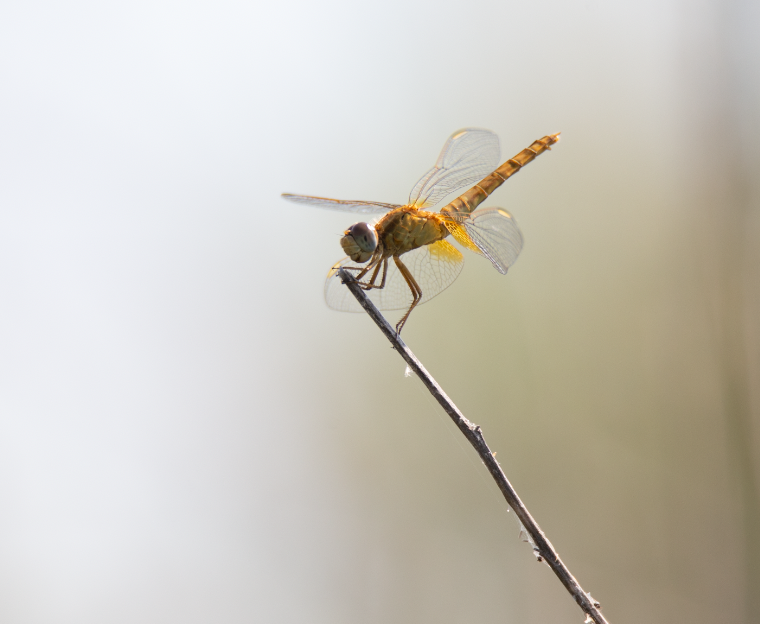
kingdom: Animalia
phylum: Arthropoda
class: Insecta
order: Odonata
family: Libellulidae
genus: Crocothemis
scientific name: Crocothemis erythraea
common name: Scarlet dragonfly
